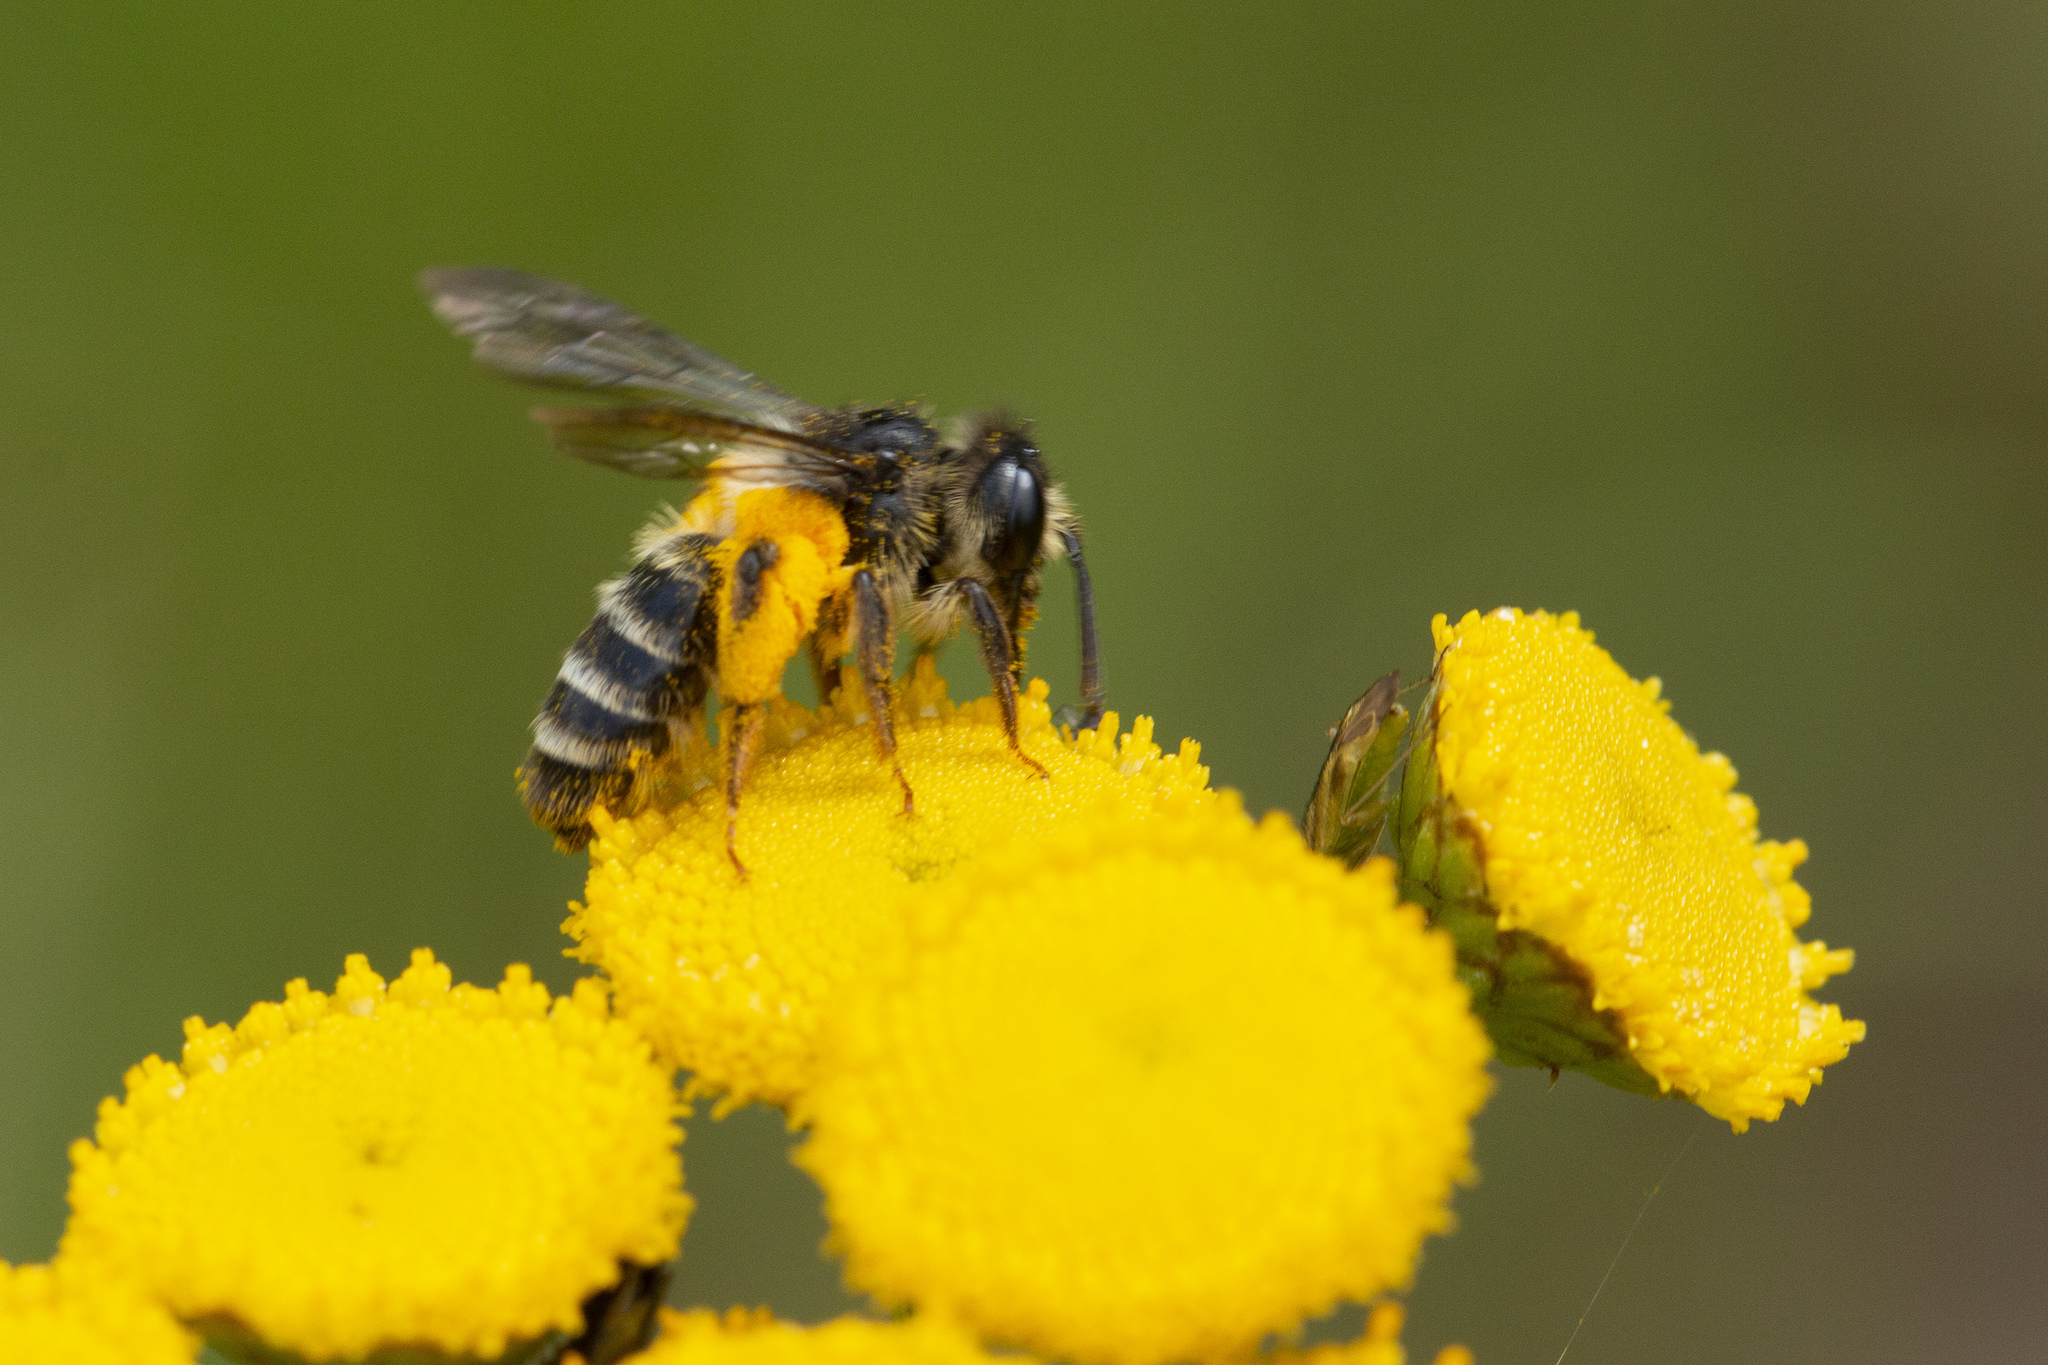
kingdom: Animalia
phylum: Arthropoda
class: Insecta
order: Hymenoptera
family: Andrenidae
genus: Andrena
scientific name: Andrena denticulata
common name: Grey-banded mining bee
